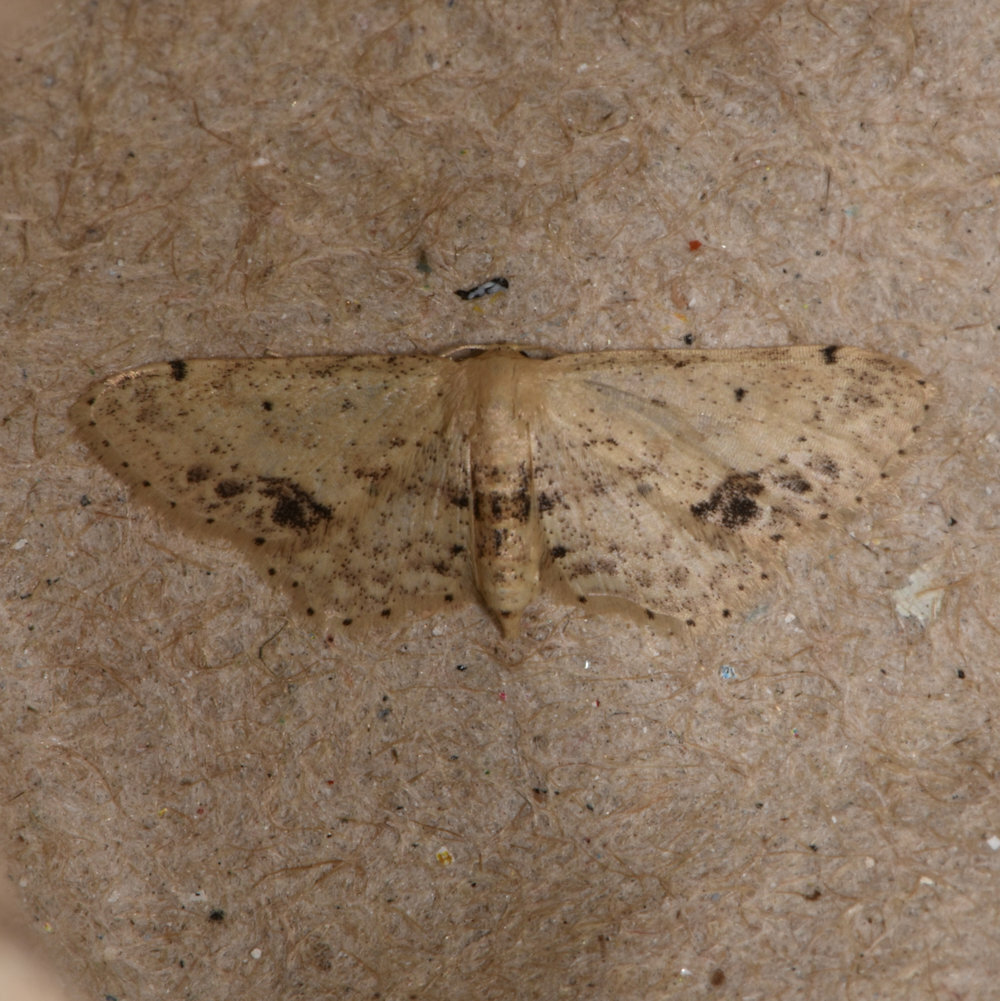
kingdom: Animalia
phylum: Arthropoda
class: Insecta
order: Lepidoptera
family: Geometridae
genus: Idaea
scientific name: Idaea dimidiata
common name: Single-dotted wave
